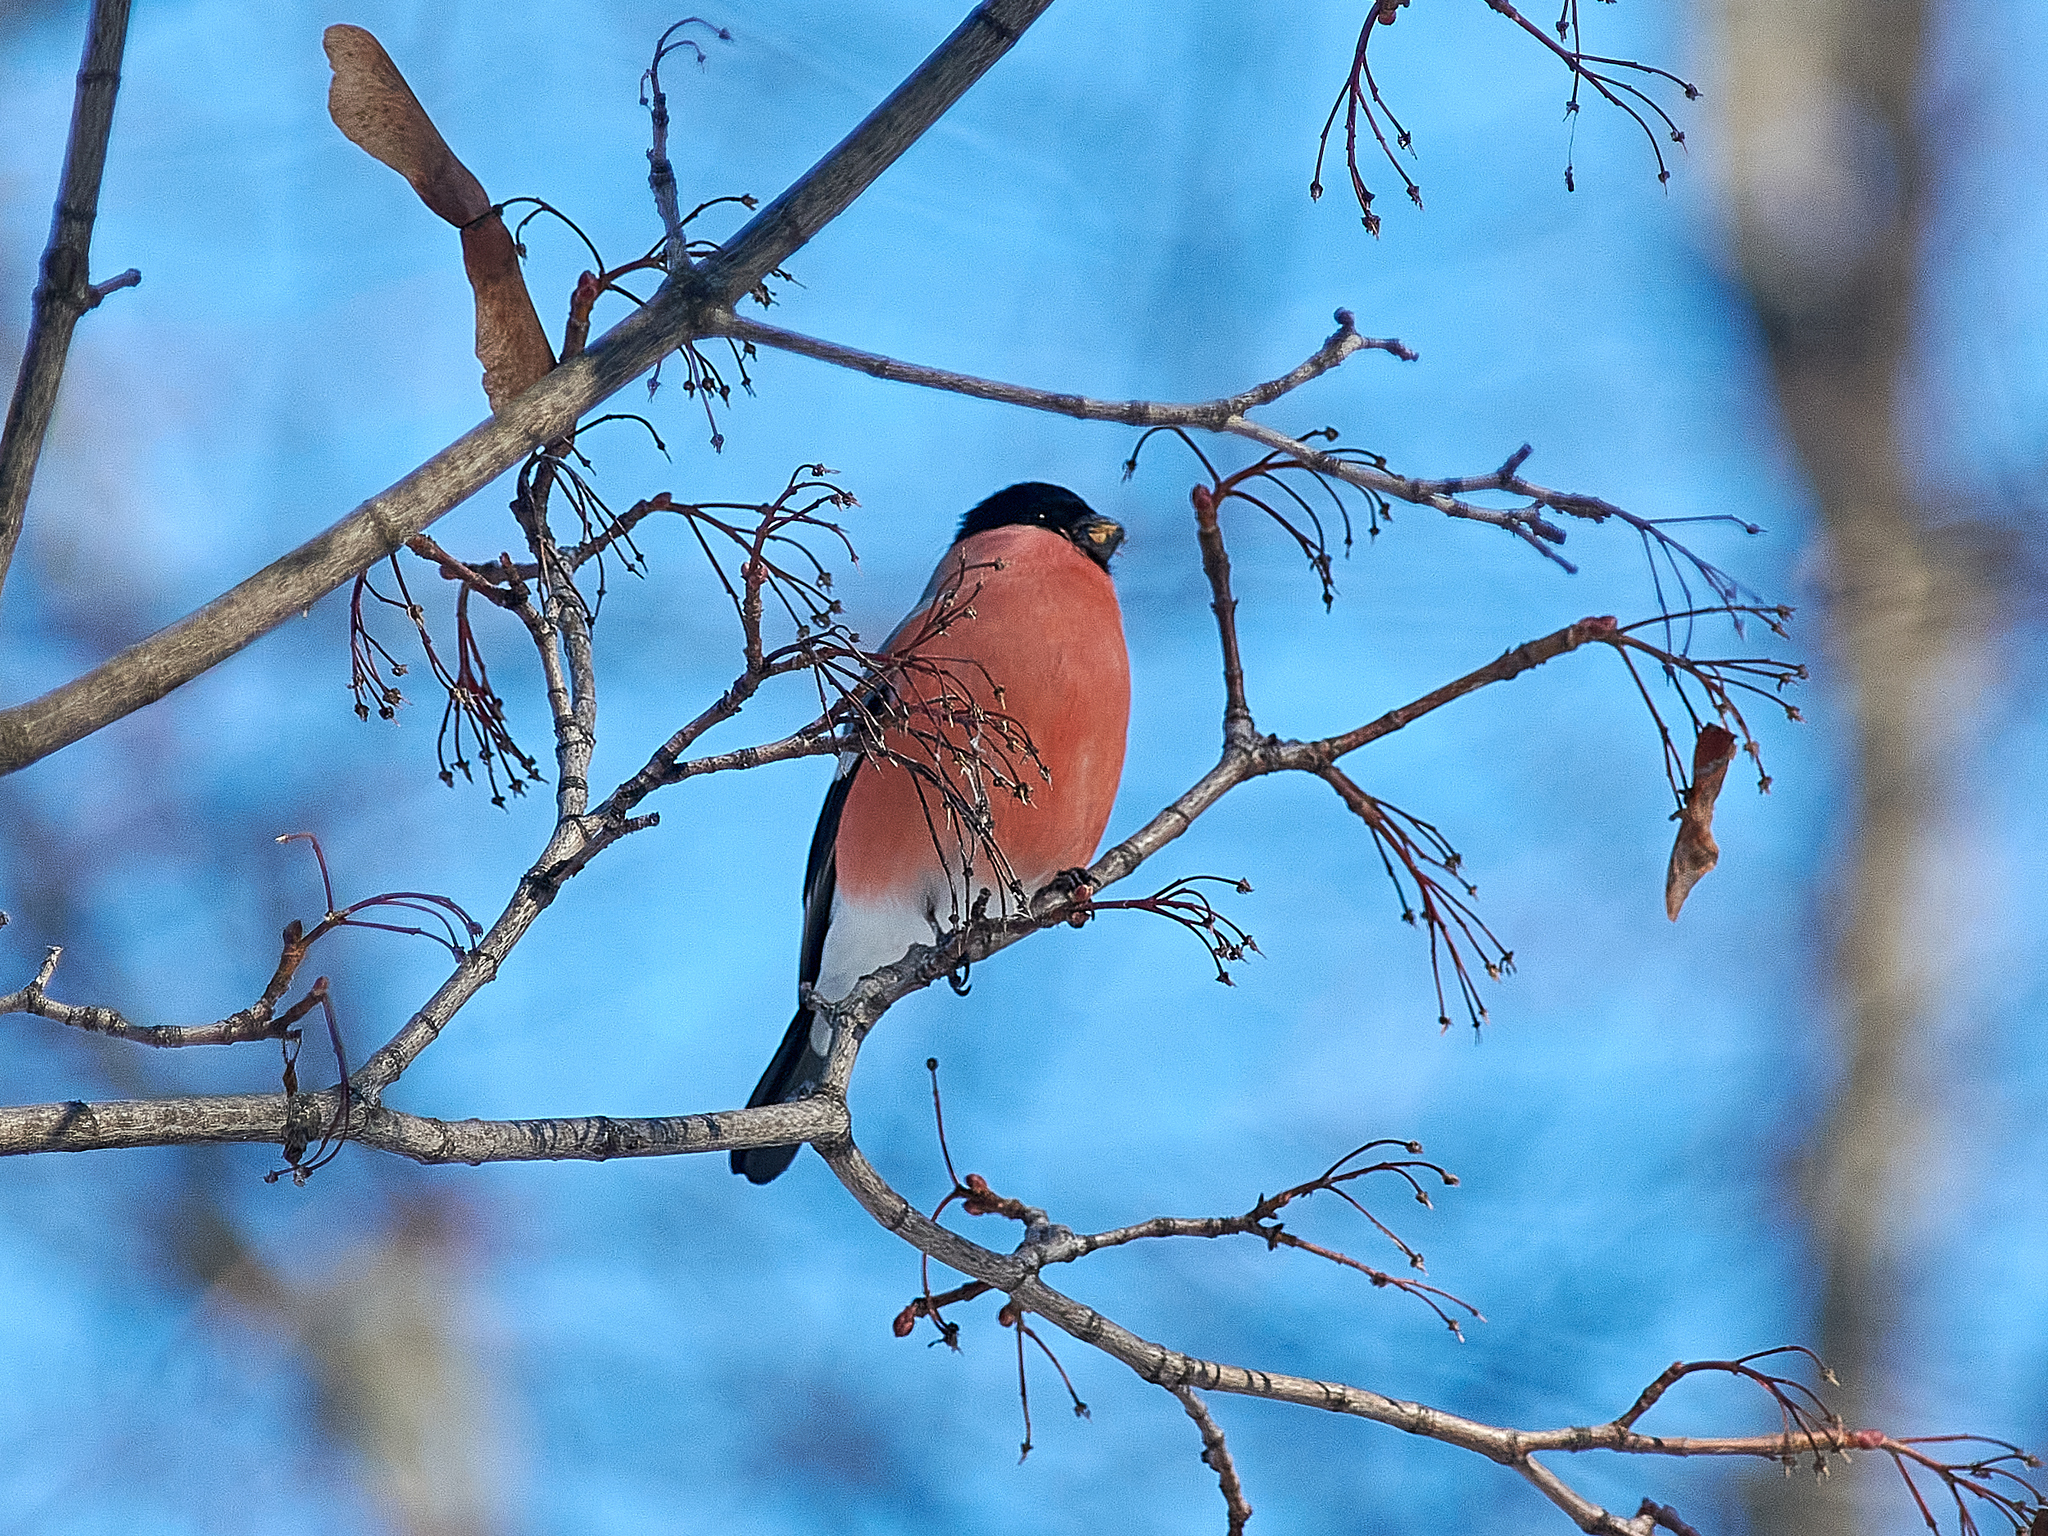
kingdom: Animalia
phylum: Chordata
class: Aves
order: Passeriformes
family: Fringillidae
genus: Pyrrhula
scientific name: Pyrrhula pyrrhula
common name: Eurasian bullfinch
